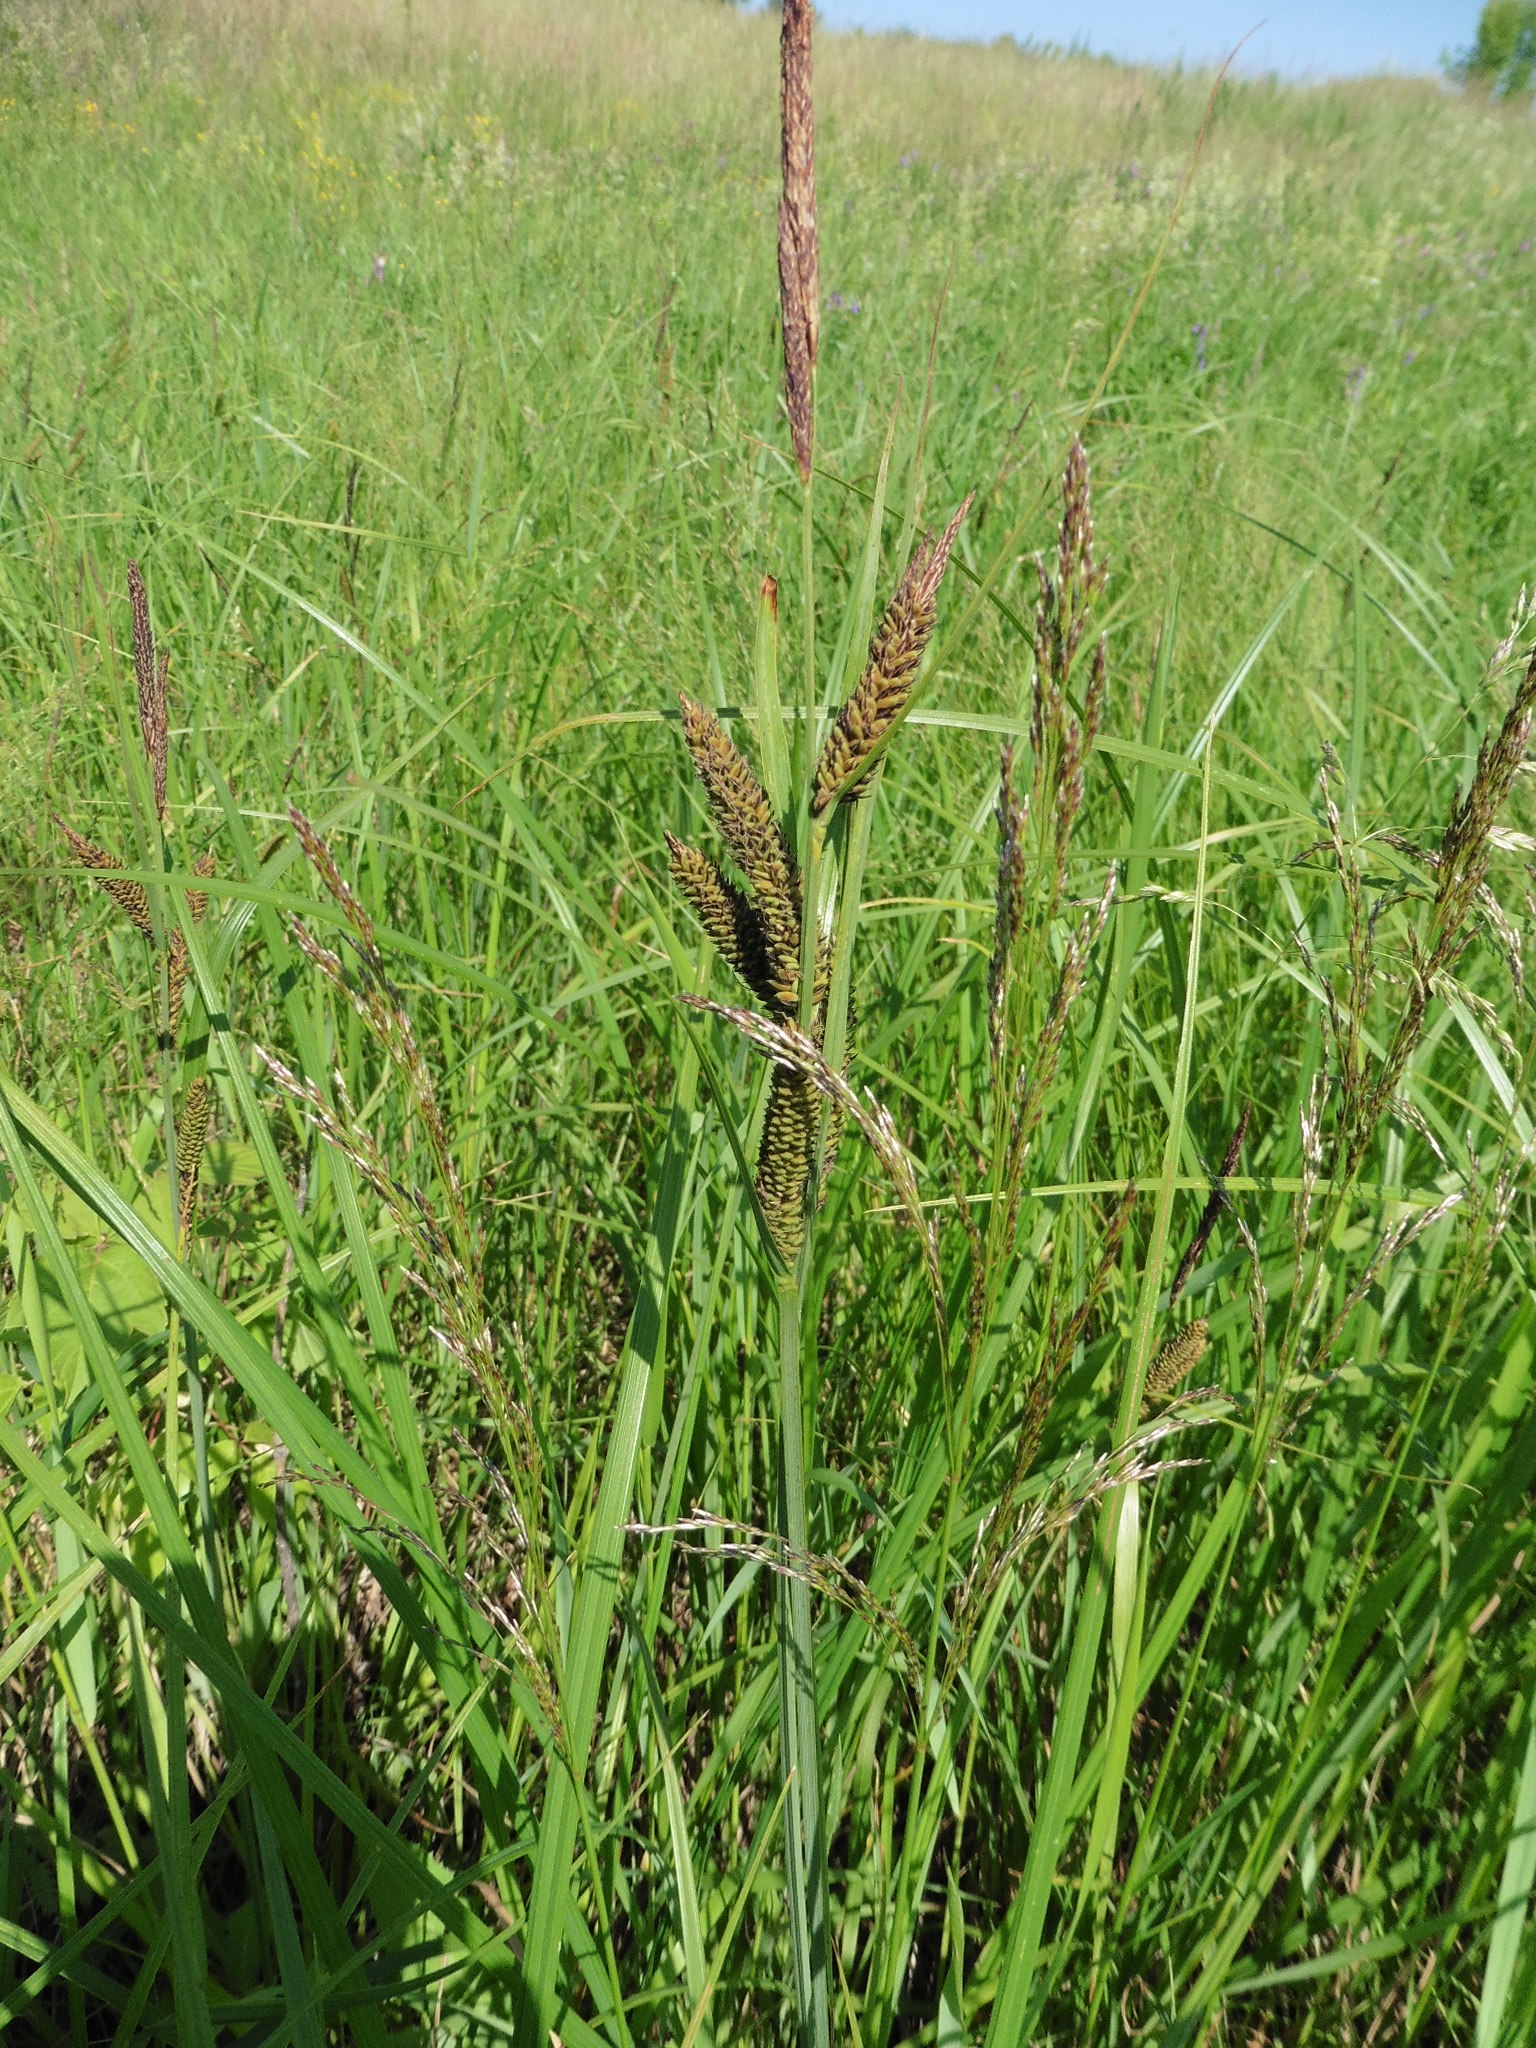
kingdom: Plantae
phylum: Tracheophyta
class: Liliopsida
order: Poales
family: Cyperaceae
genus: Carex
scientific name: Carex riparia
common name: Greater pond-sedge
